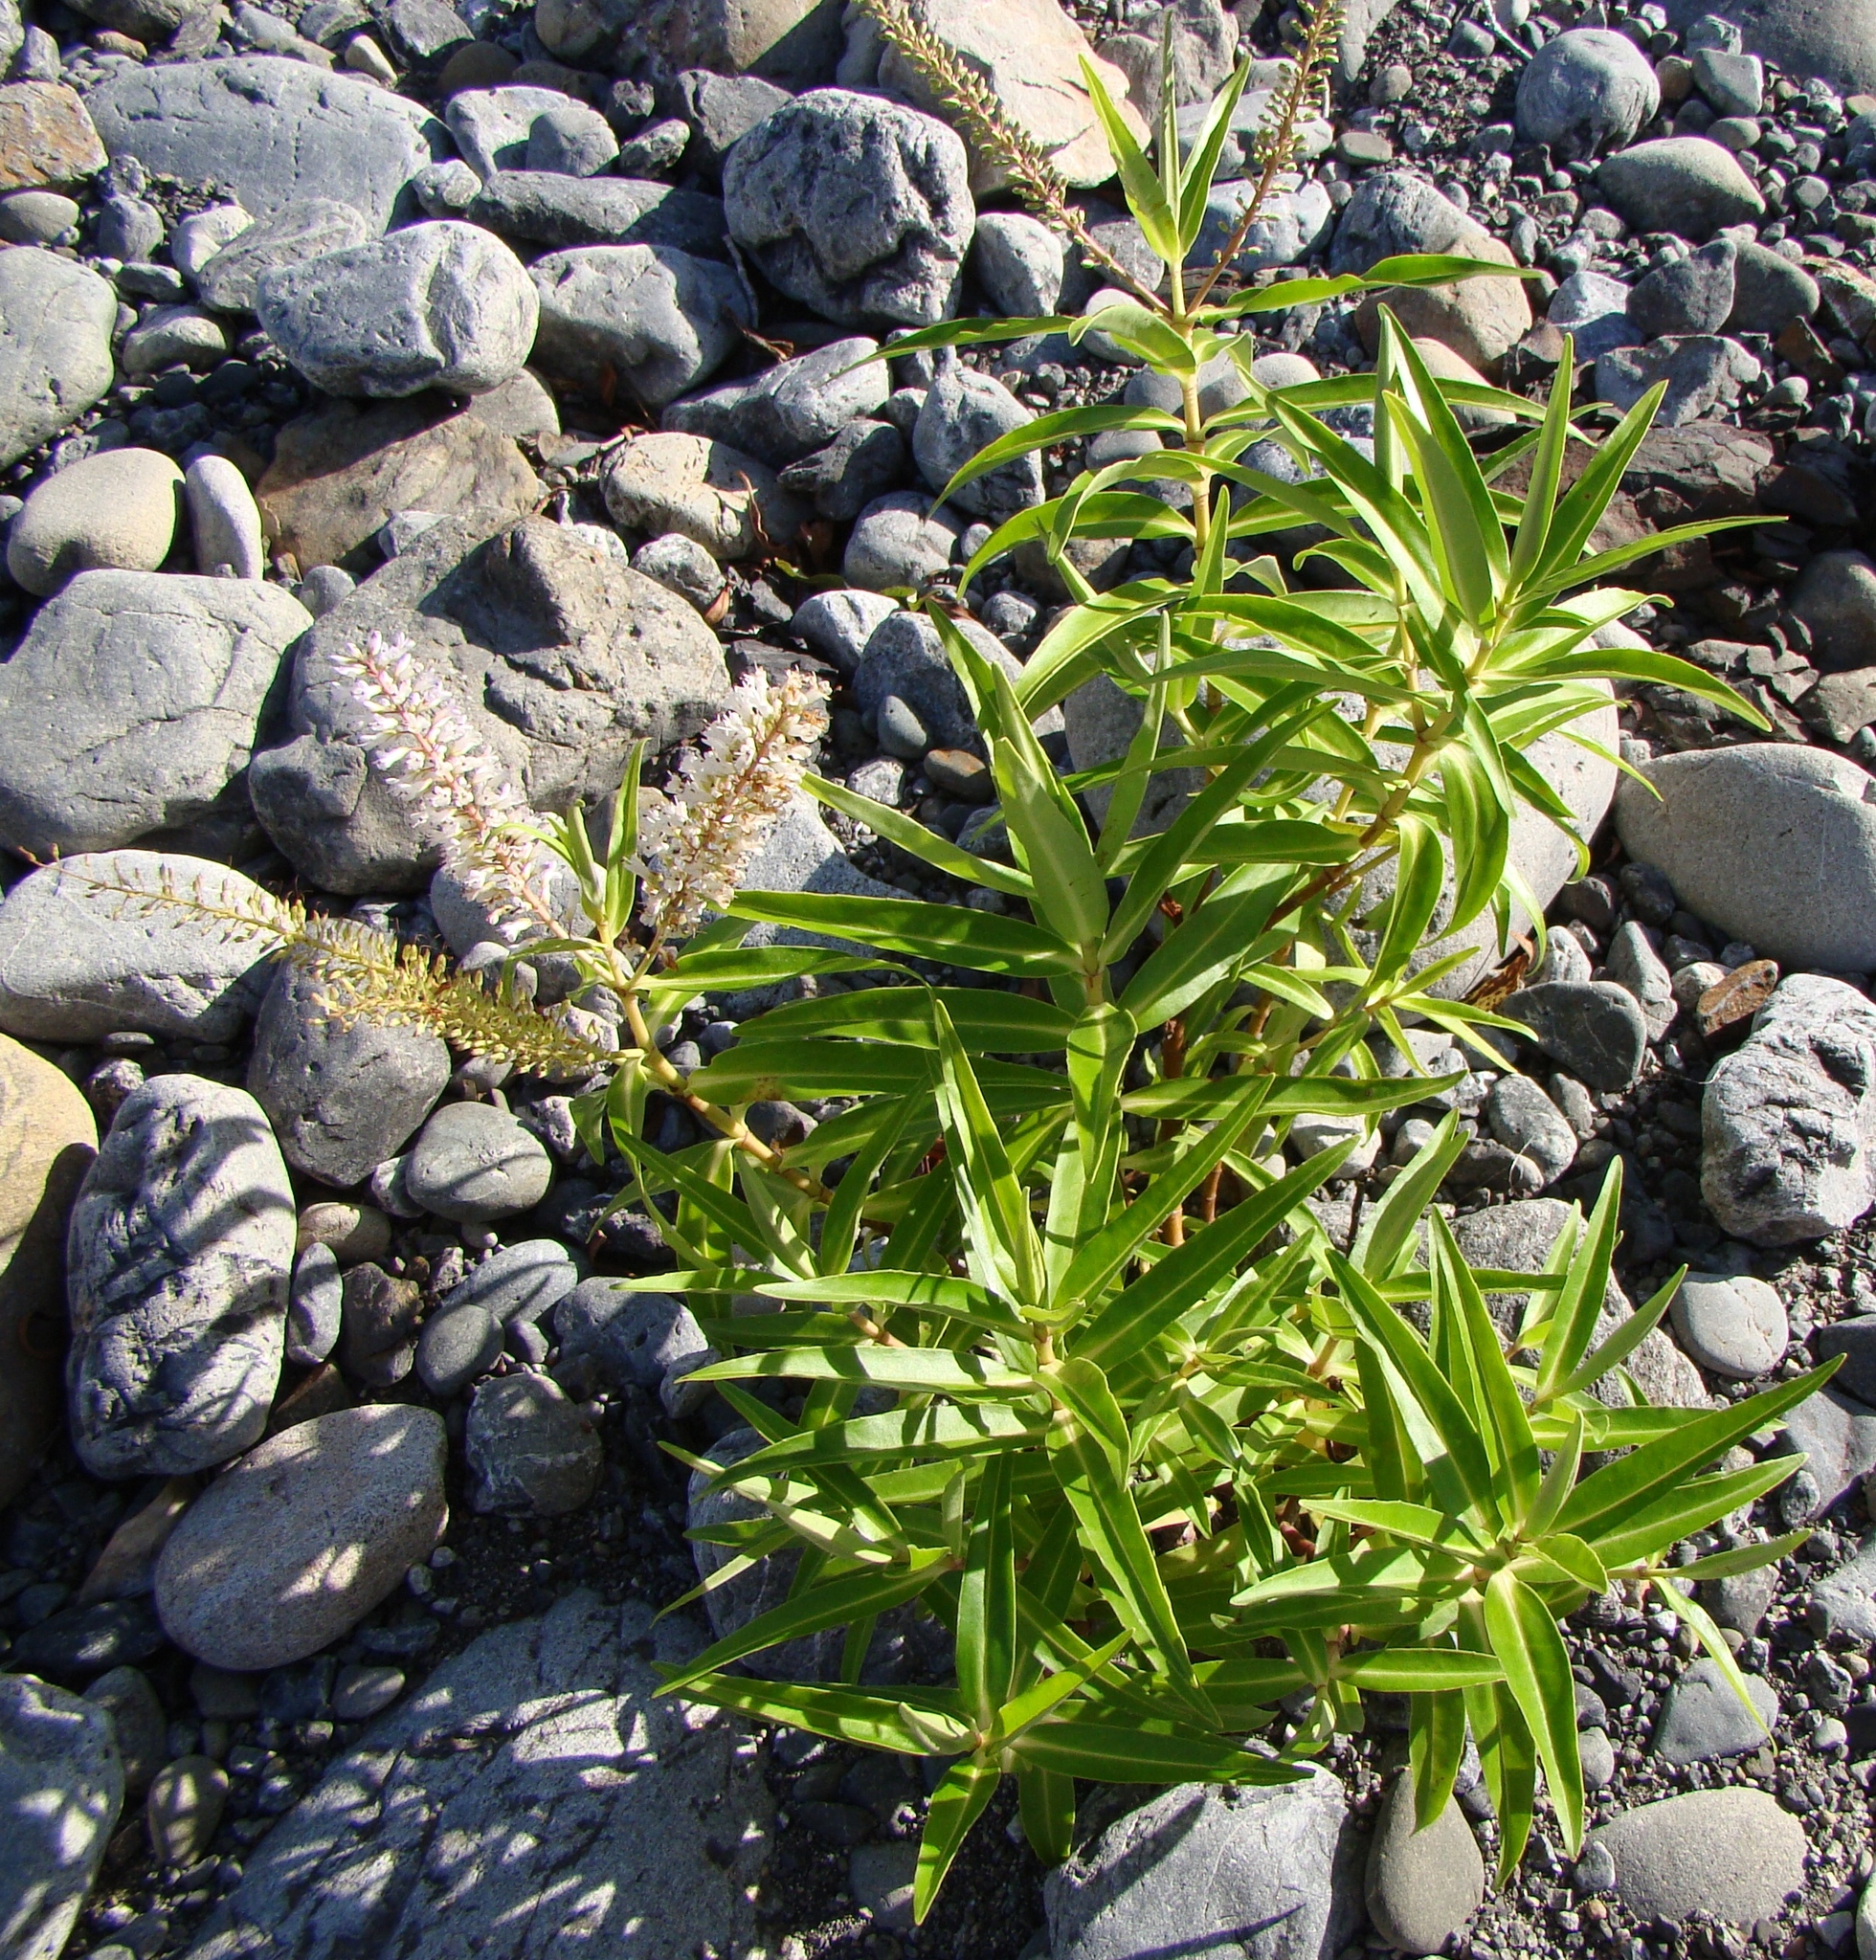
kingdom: Plantae
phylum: Tracheophyta
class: Magnoliopsida
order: Lamiales
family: Plantaginaceae
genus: Veronica
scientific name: Veronica stricta
